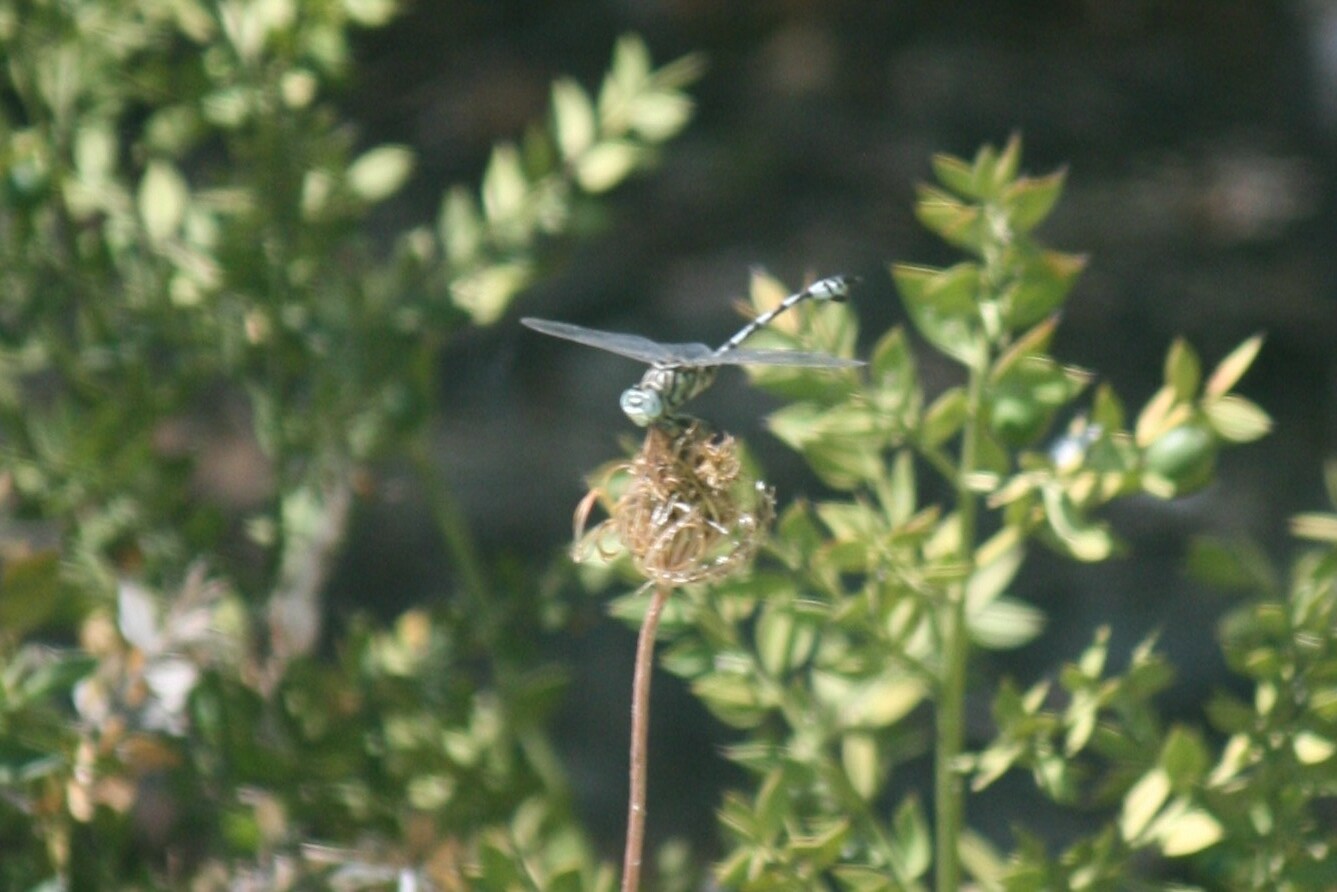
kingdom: Animalia
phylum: Arthropoda
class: Insecta
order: Odonata
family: Gomphidae
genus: Lindenia
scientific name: Lindenia tetraphylla
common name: Bladetail
